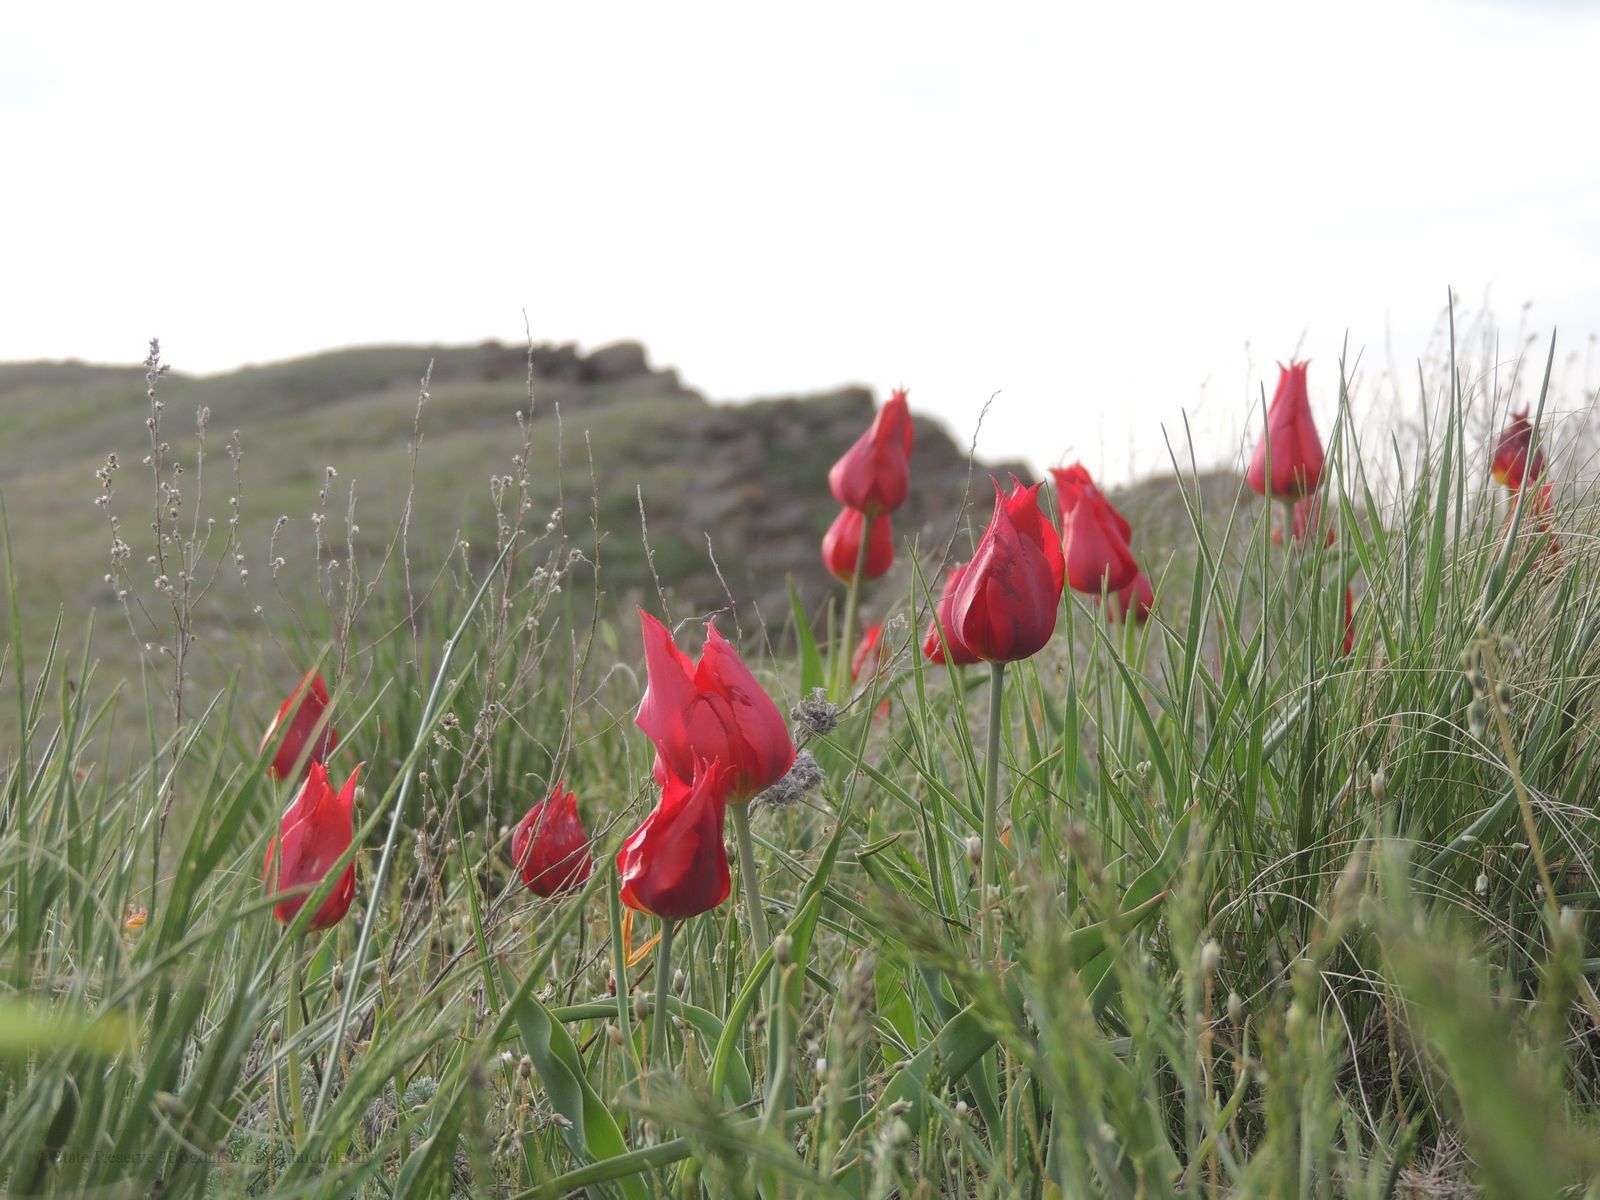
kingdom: Plantae
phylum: Tracheophyta
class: Liliopsida
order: Liliales
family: Liliaceae
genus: Tulipa
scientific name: Tulipa suaveolens
